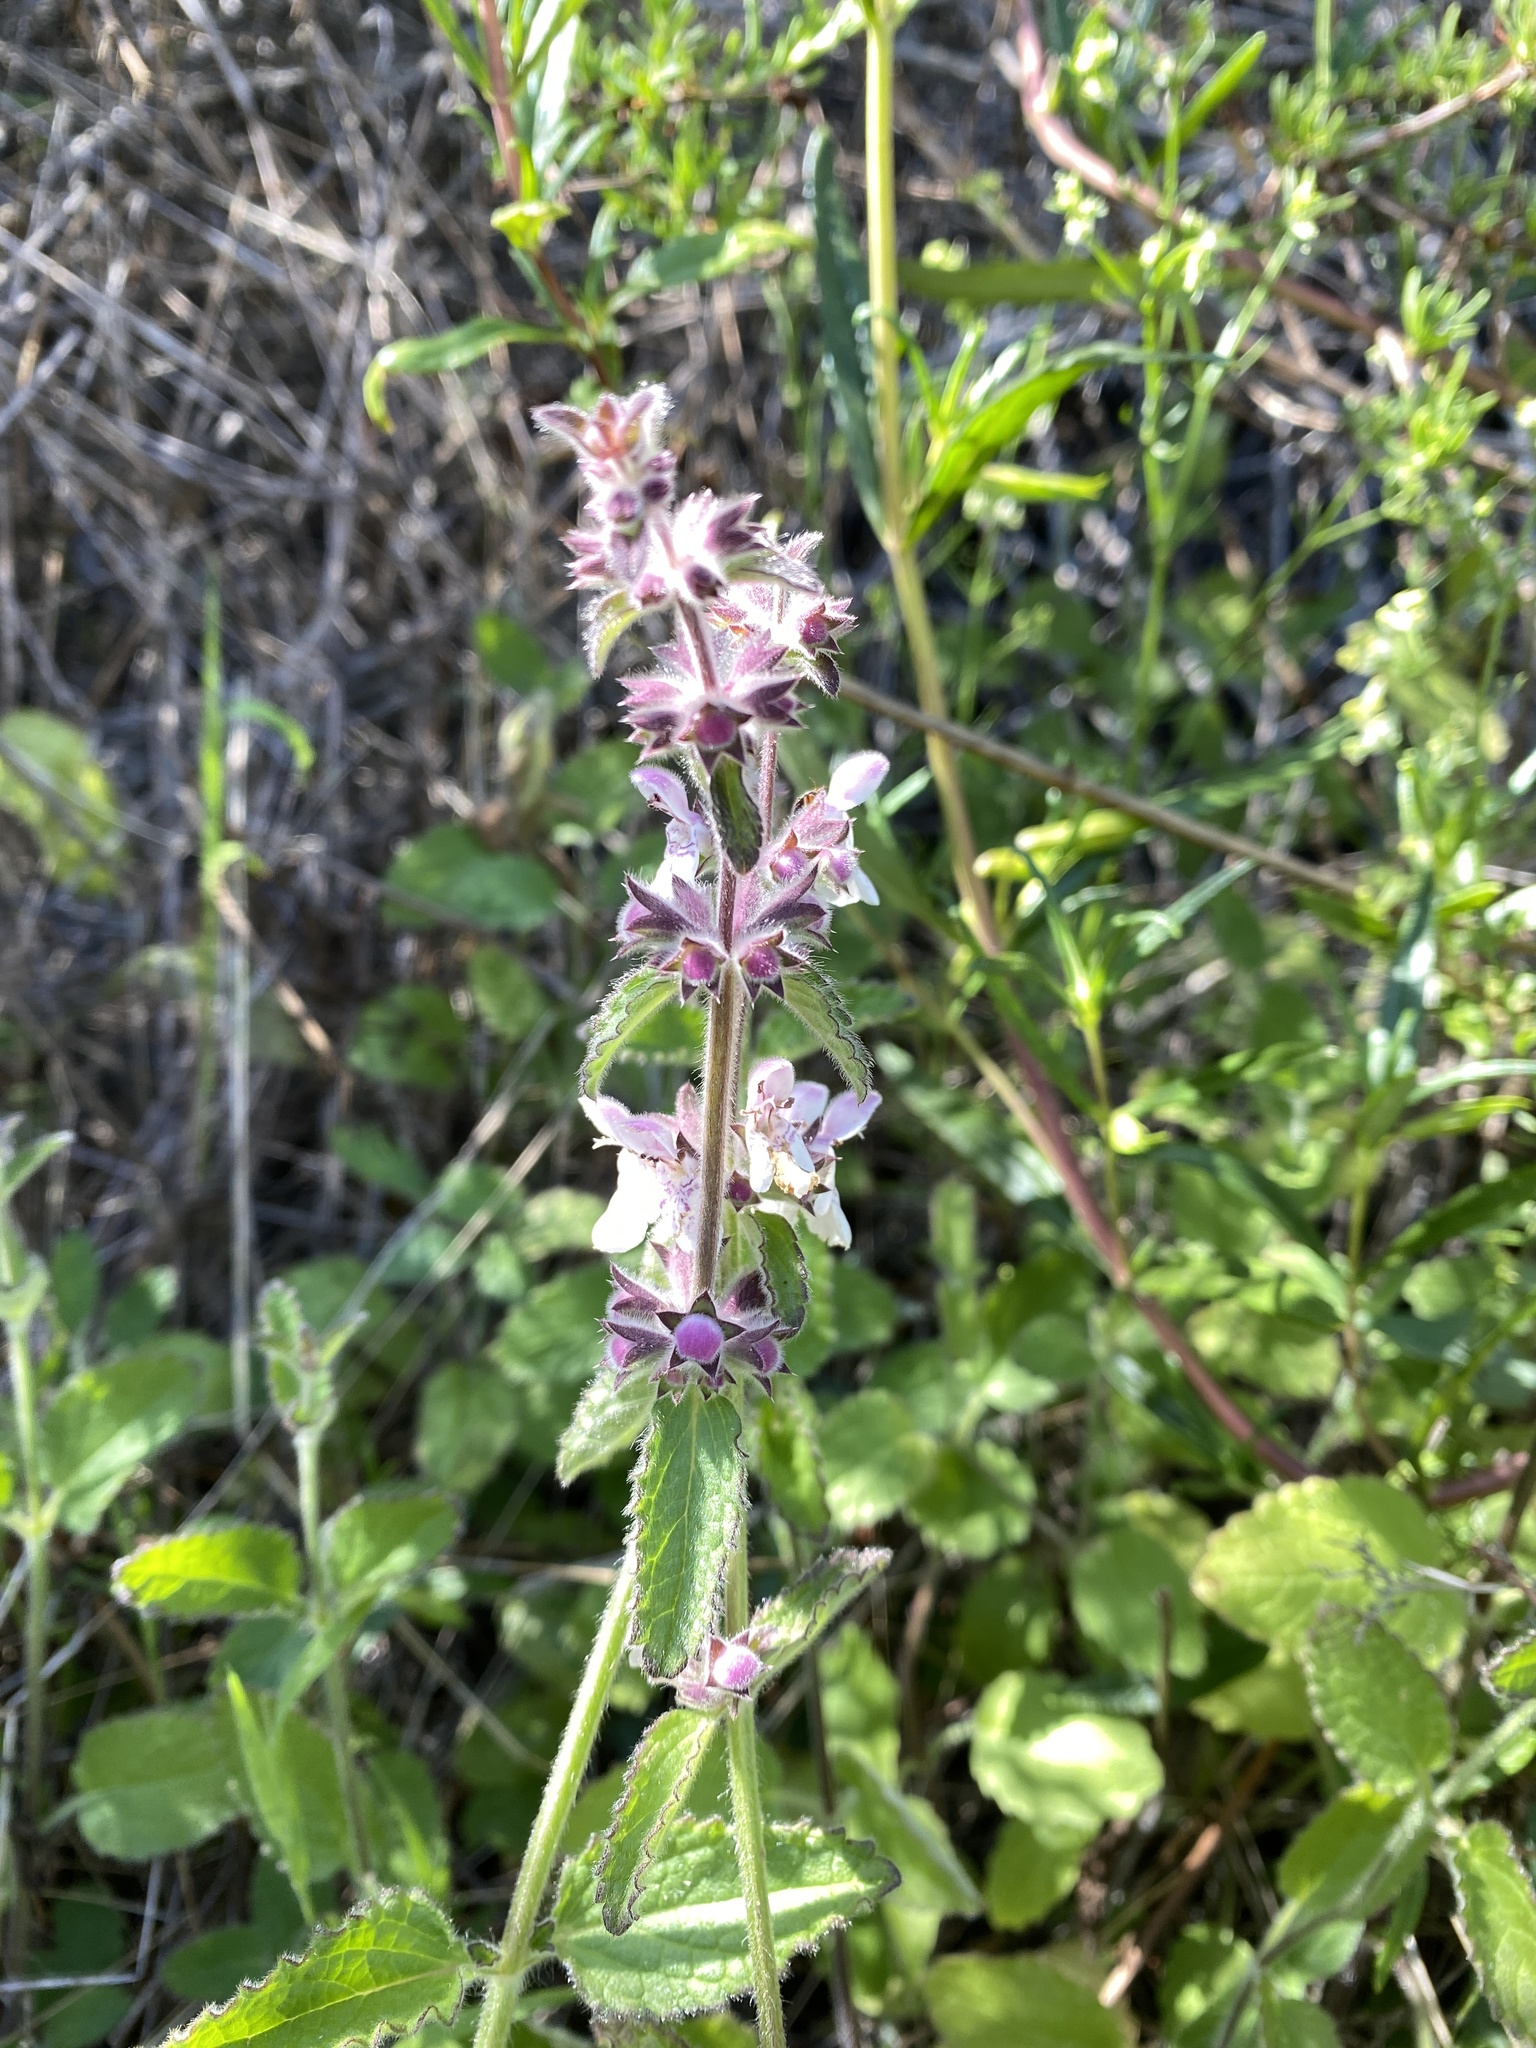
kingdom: Plantae
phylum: Tracheophyta
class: Magnoliopsida
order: Lamiales
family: Lamiaceae
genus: Stachys
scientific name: Stachys rigida
